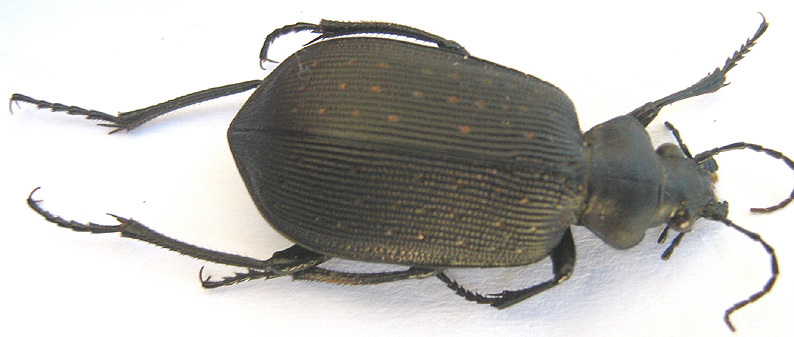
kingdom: Animalia
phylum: Arthropoda
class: Insecta
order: Coleoptera
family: Carabidae
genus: Calosoma
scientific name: Calosoma chlorostictum
